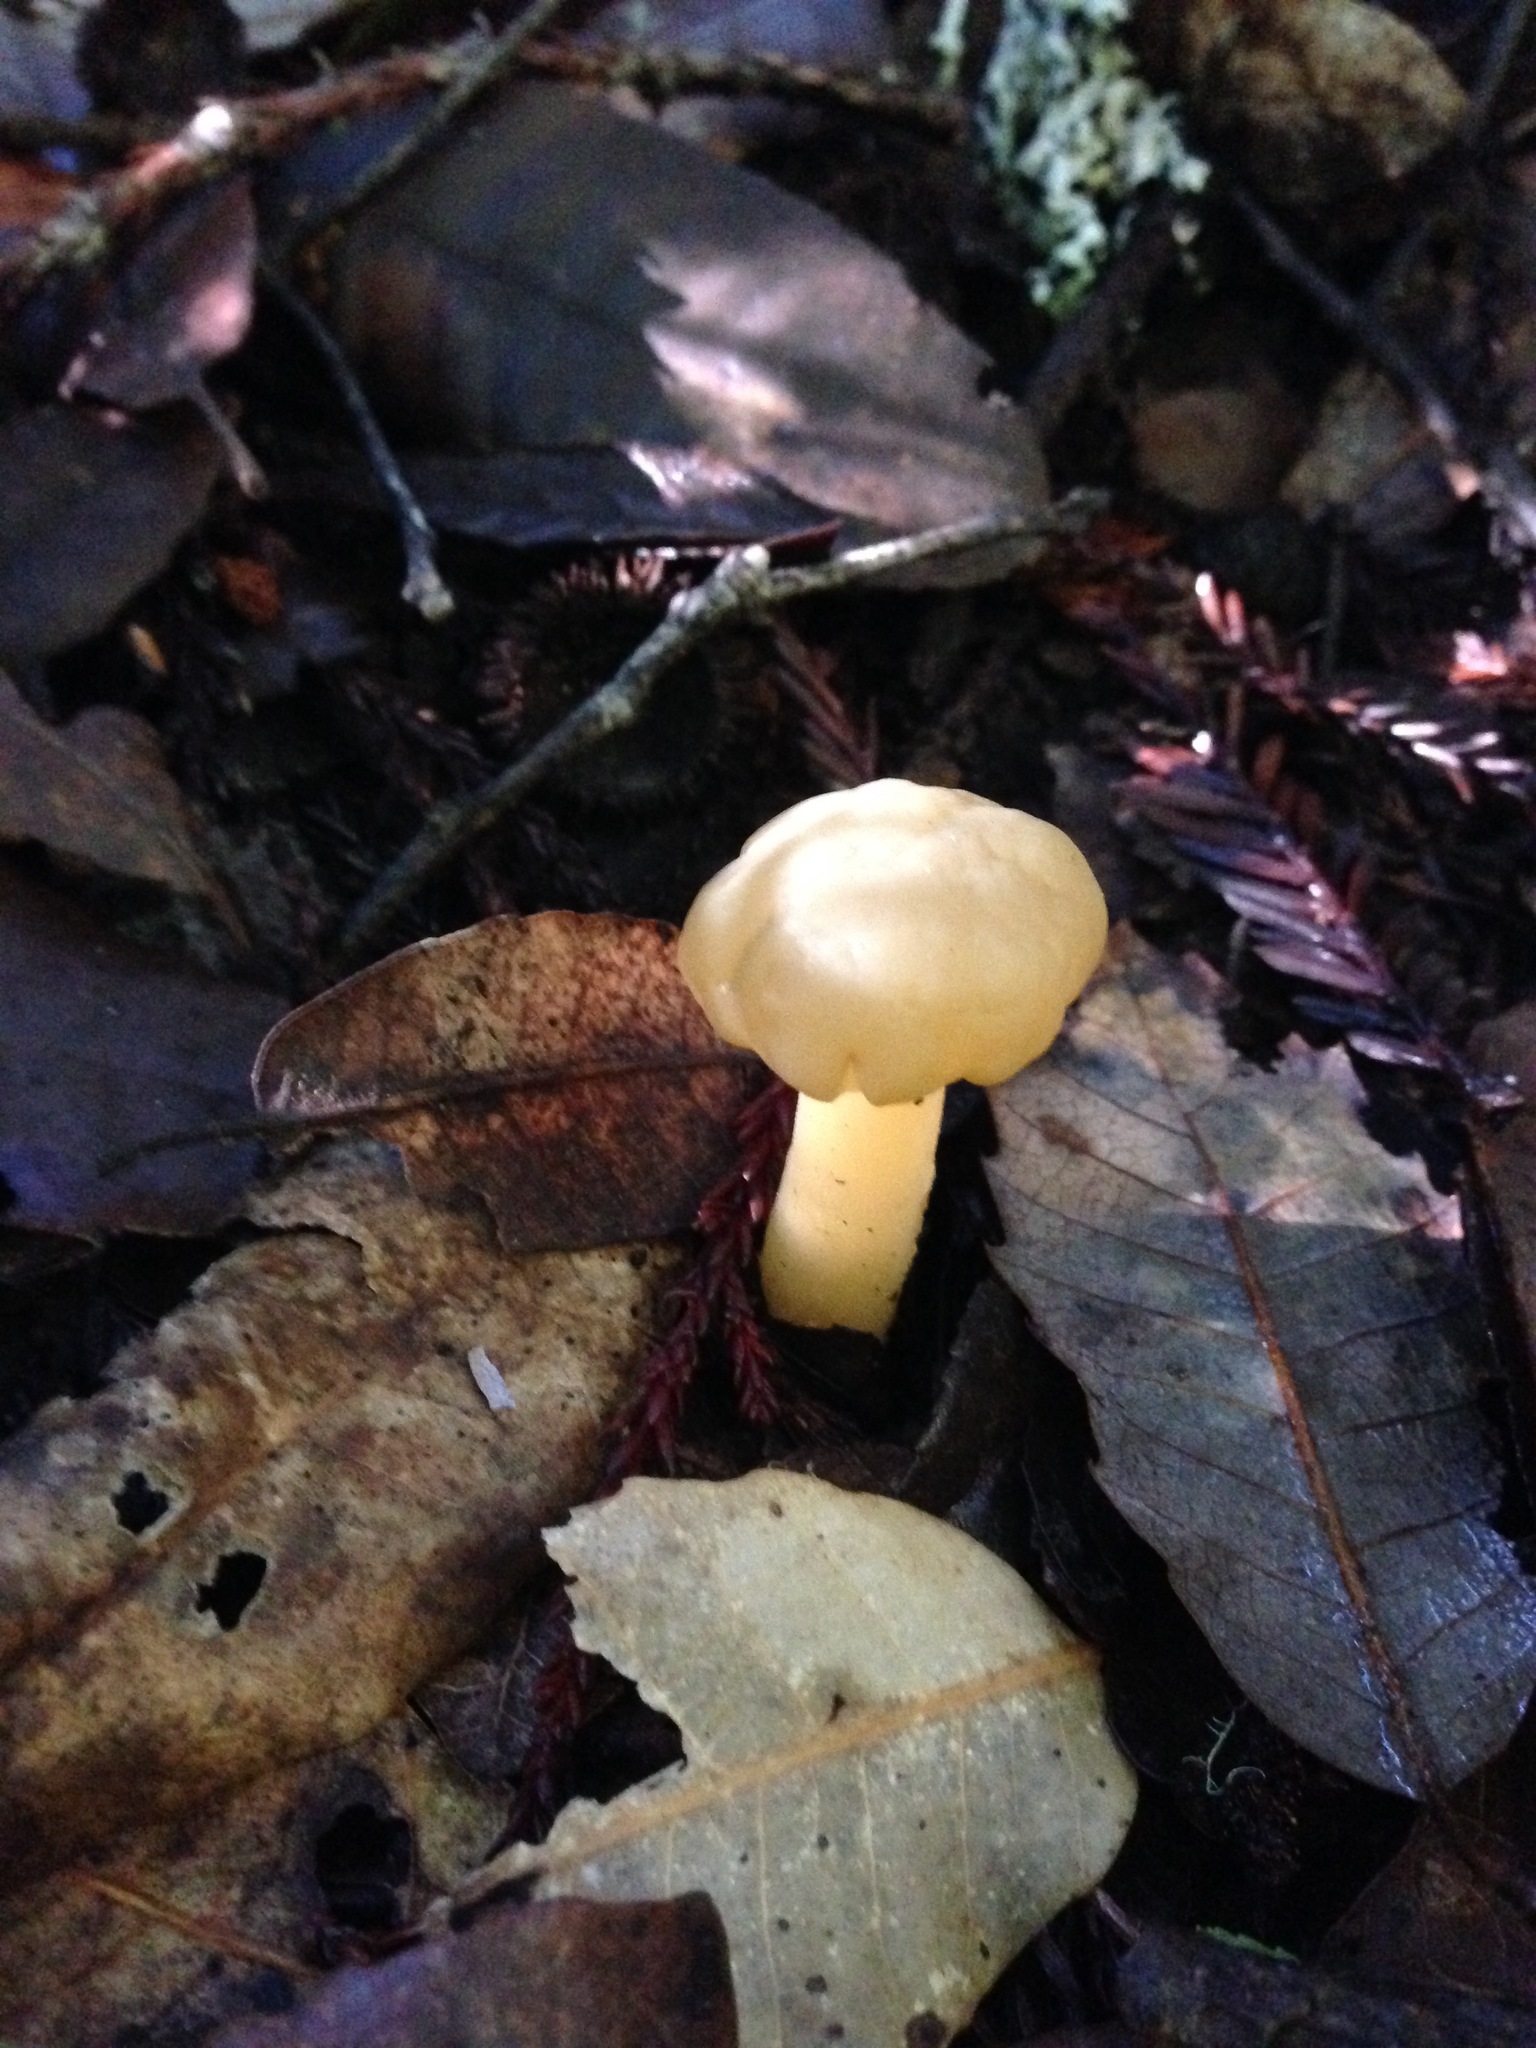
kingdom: Fungi
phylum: Ascomycota
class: Leotiomycetes
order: Leotiales
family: Leotiaceae
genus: Leotia
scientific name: Leotia lubrica
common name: Jellybaby
